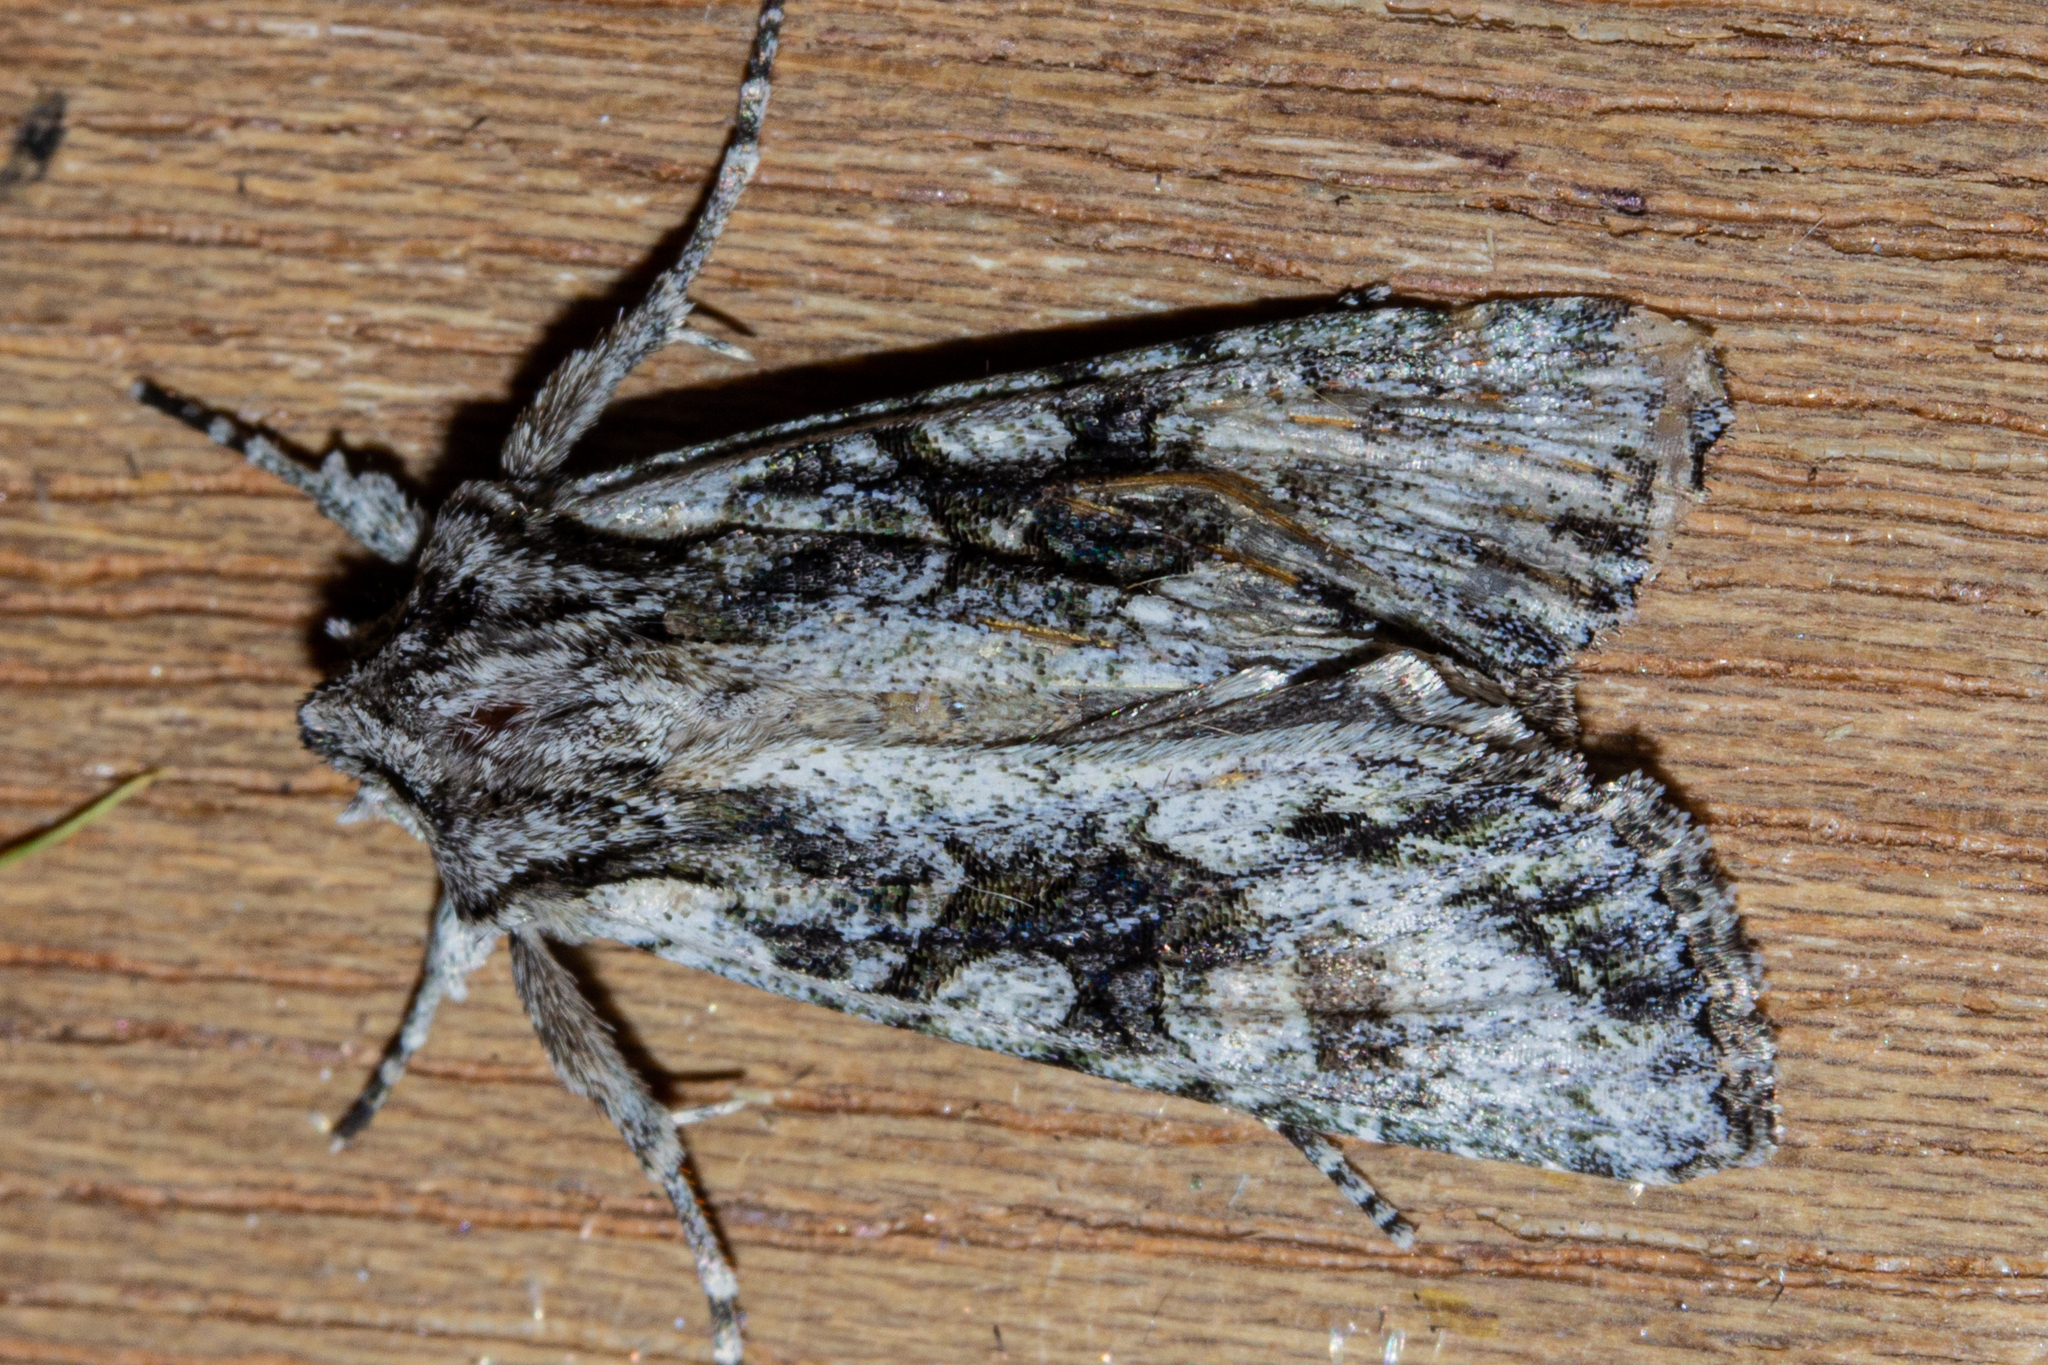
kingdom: Animalia
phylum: Arthropoda
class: Insecta
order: Lepidoptera
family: Noctuidae
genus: Ichneutica
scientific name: Ichneutica mutans
